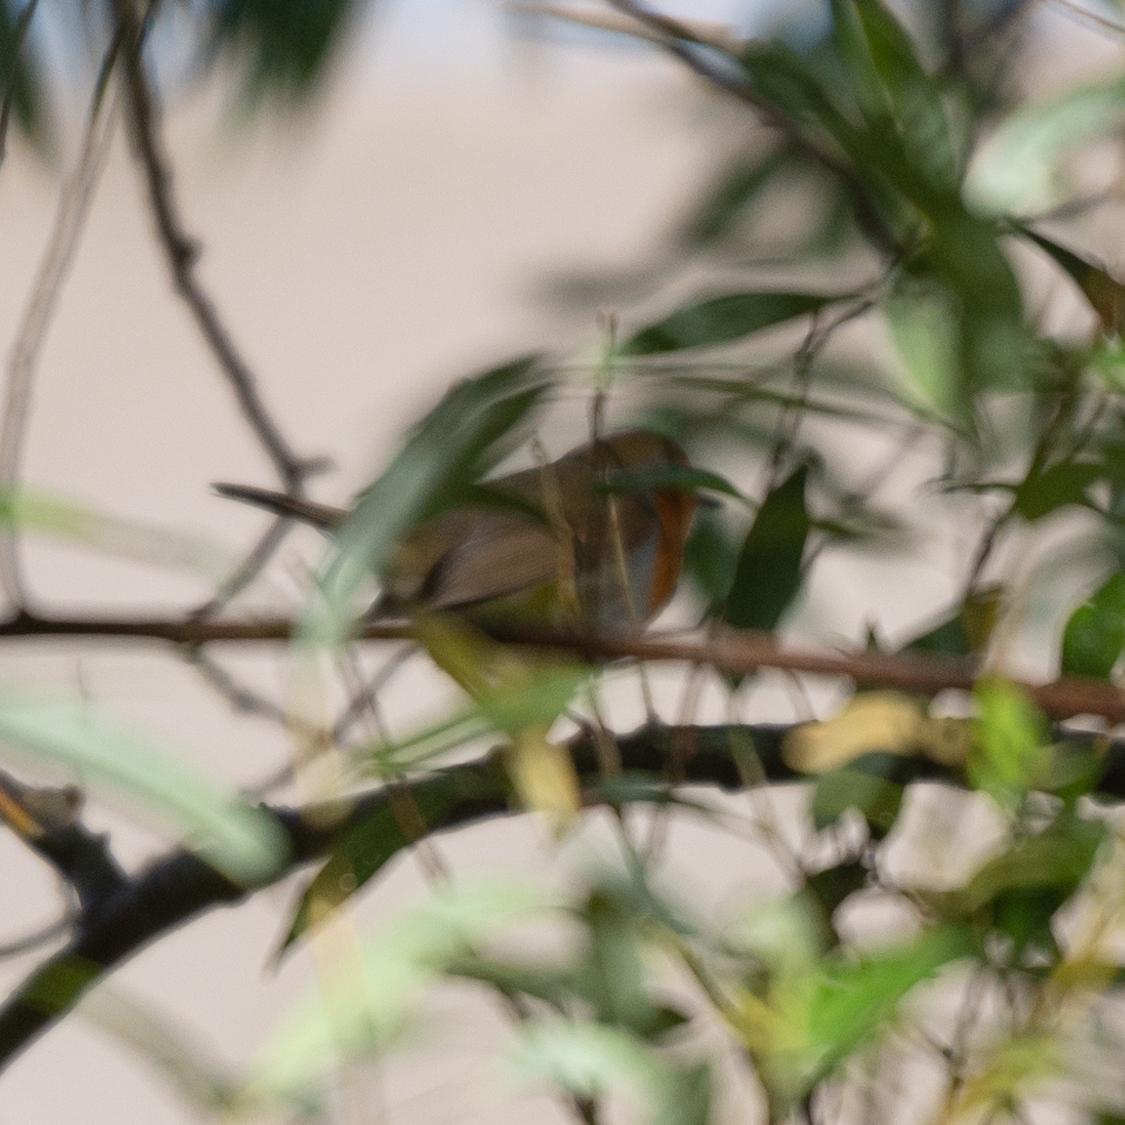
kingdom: Animalia
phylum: Chordata
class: Aves
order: Passeriformes
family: Muscicapidae
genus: Erithacus
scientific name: Erithacus rubecula
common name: European robin
